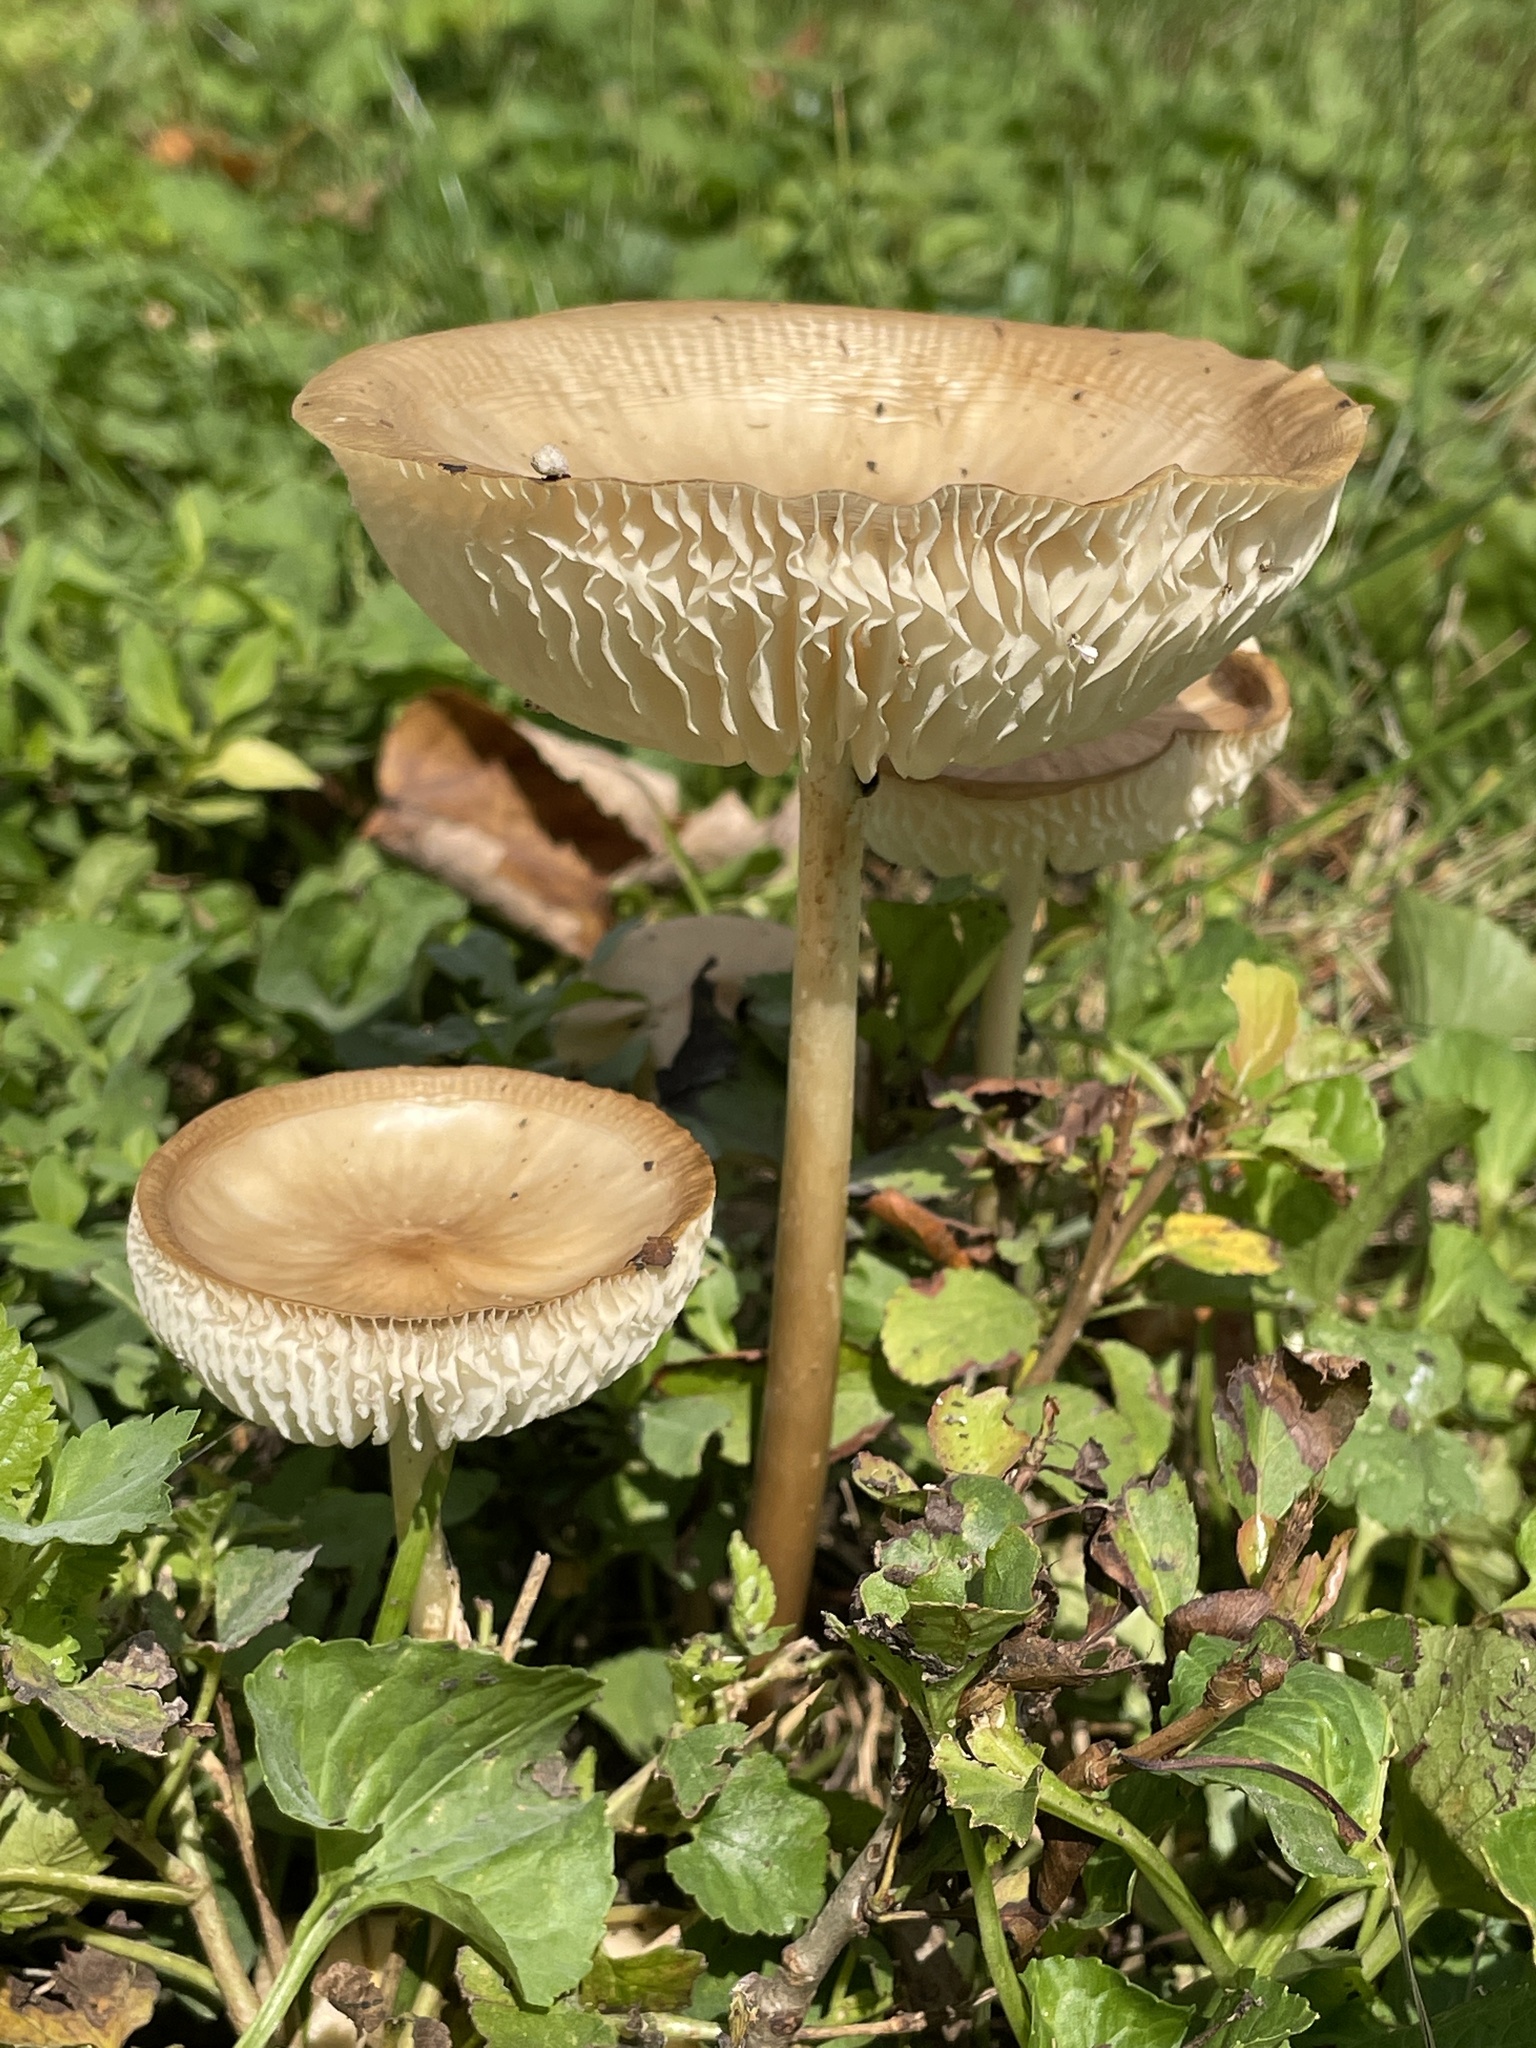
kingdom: Fungi
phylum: Basidiomycota
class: Agaricomycetes
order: Agaricales
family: Physalacriaceae
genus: Hymenopellis
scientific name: Hymenopellis furfuracea
